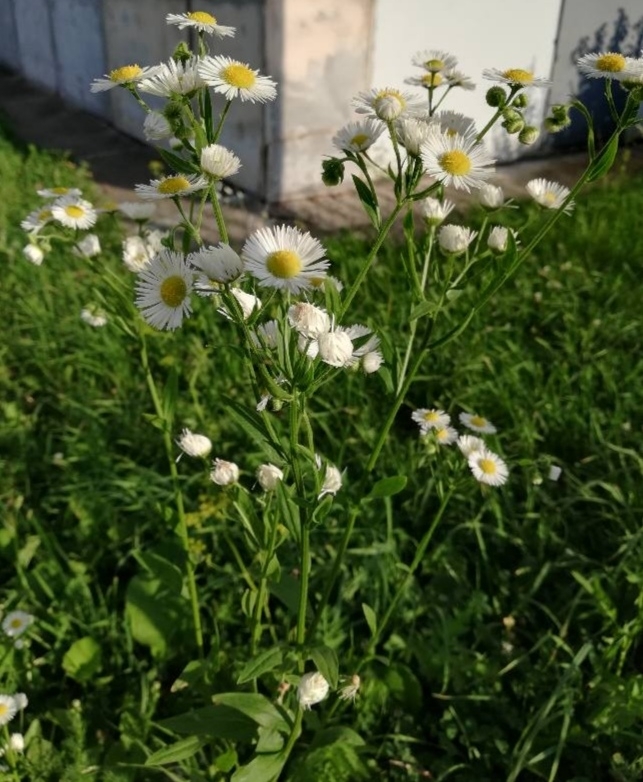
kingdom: Plantae
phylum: Tracheophyta
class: Magnoliopsida
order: Asterales
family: Asteraceae
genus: Erigeron
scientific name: Erigeron annuus
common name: Tall fleabane
